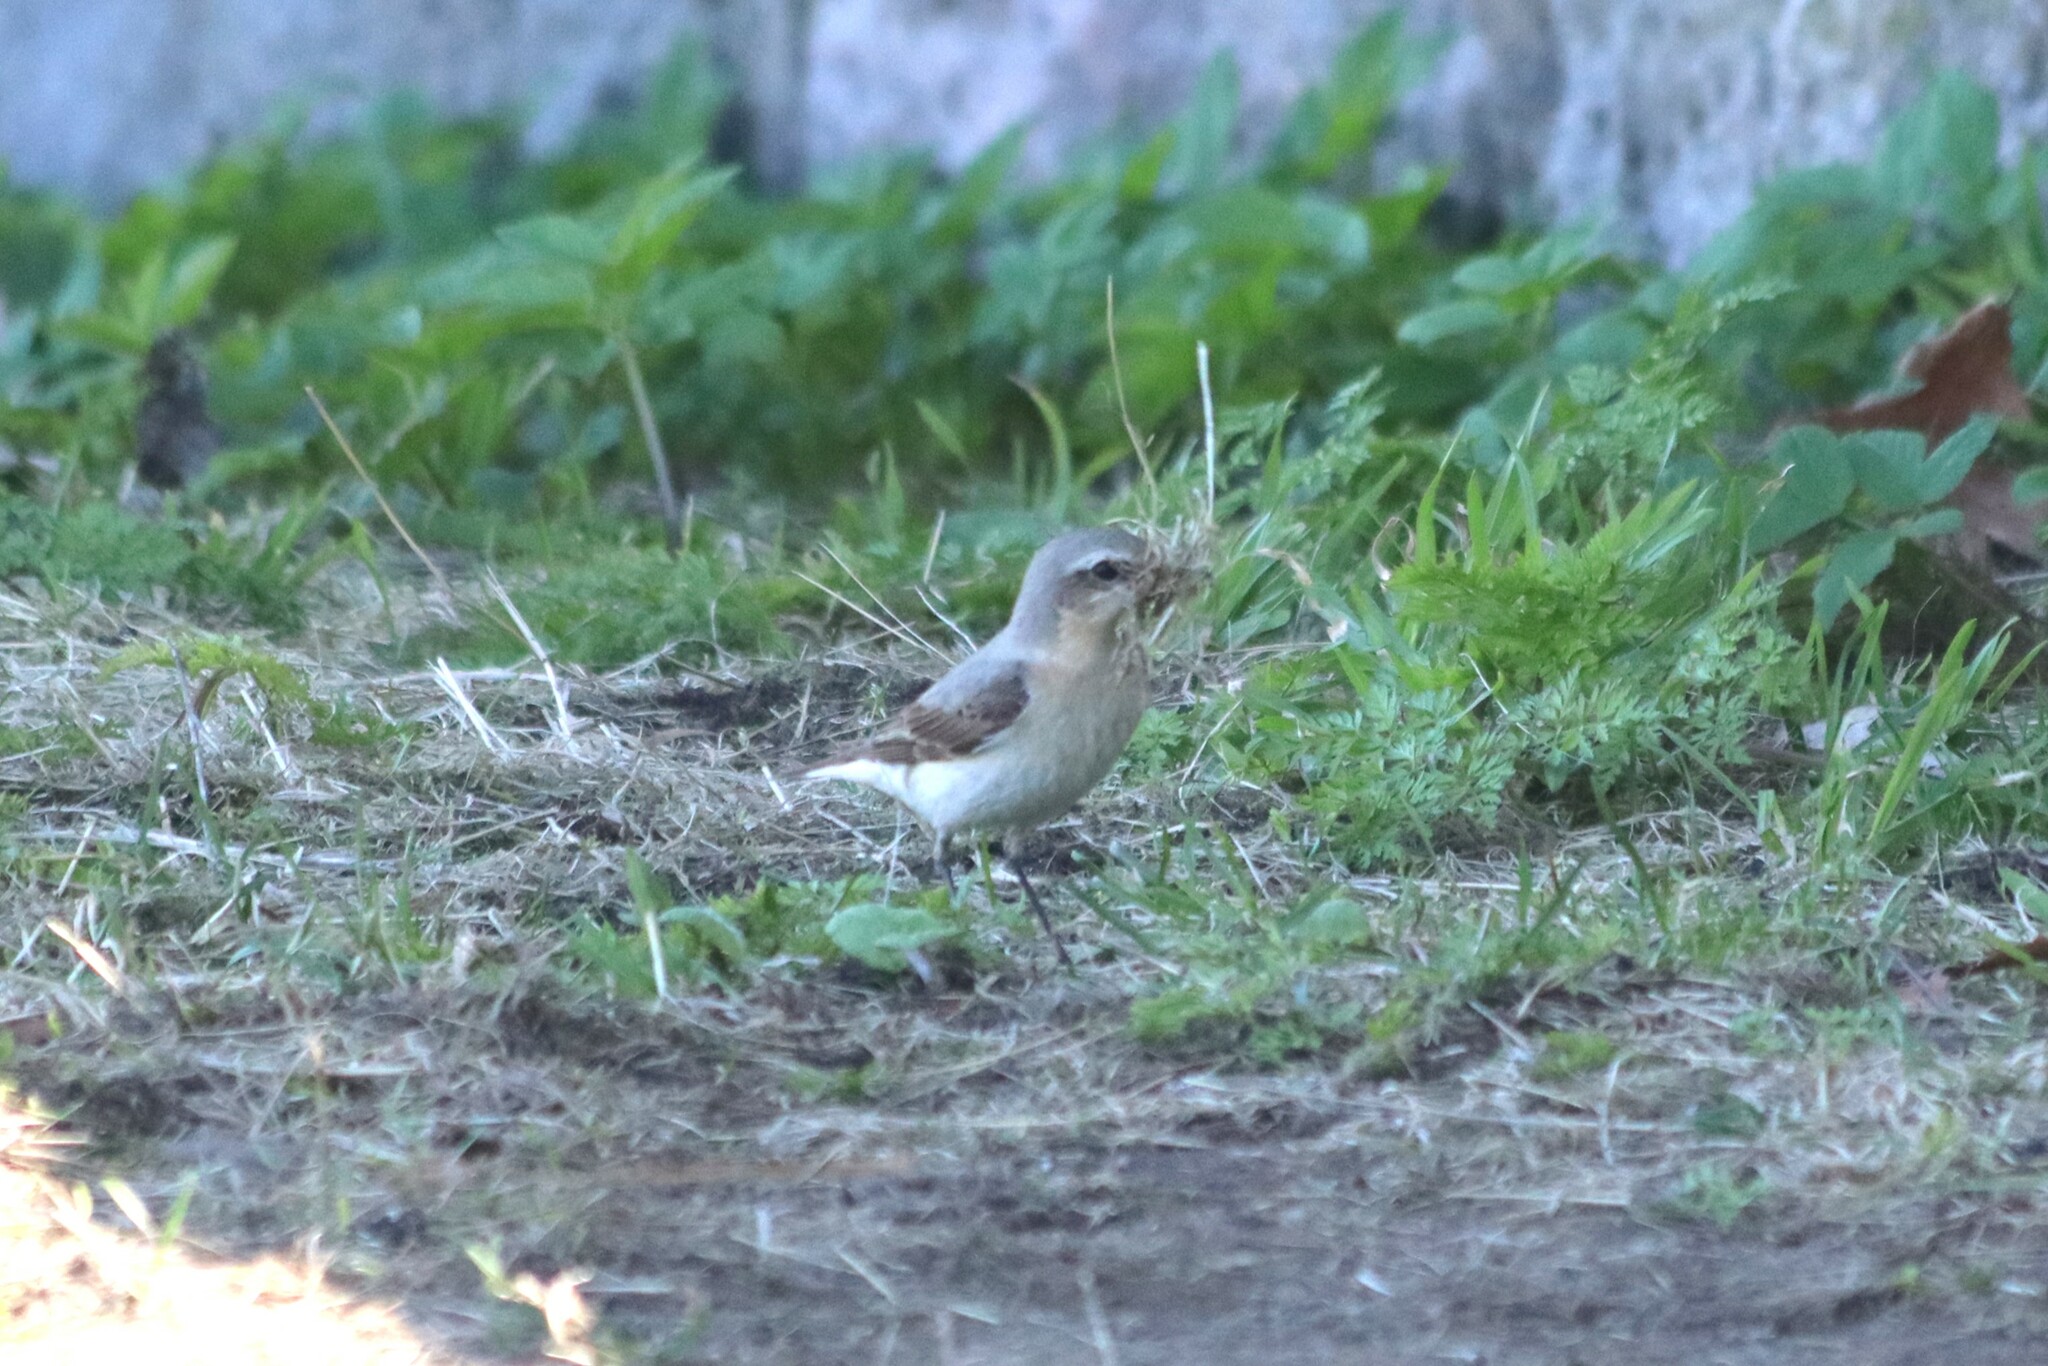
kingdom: Animalia
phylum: Chordata
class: Aves
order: Passeriformes
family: Muscicapidae
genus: Oenanthe
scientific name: Oenanthe oenanthe
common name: Northern wheatear
